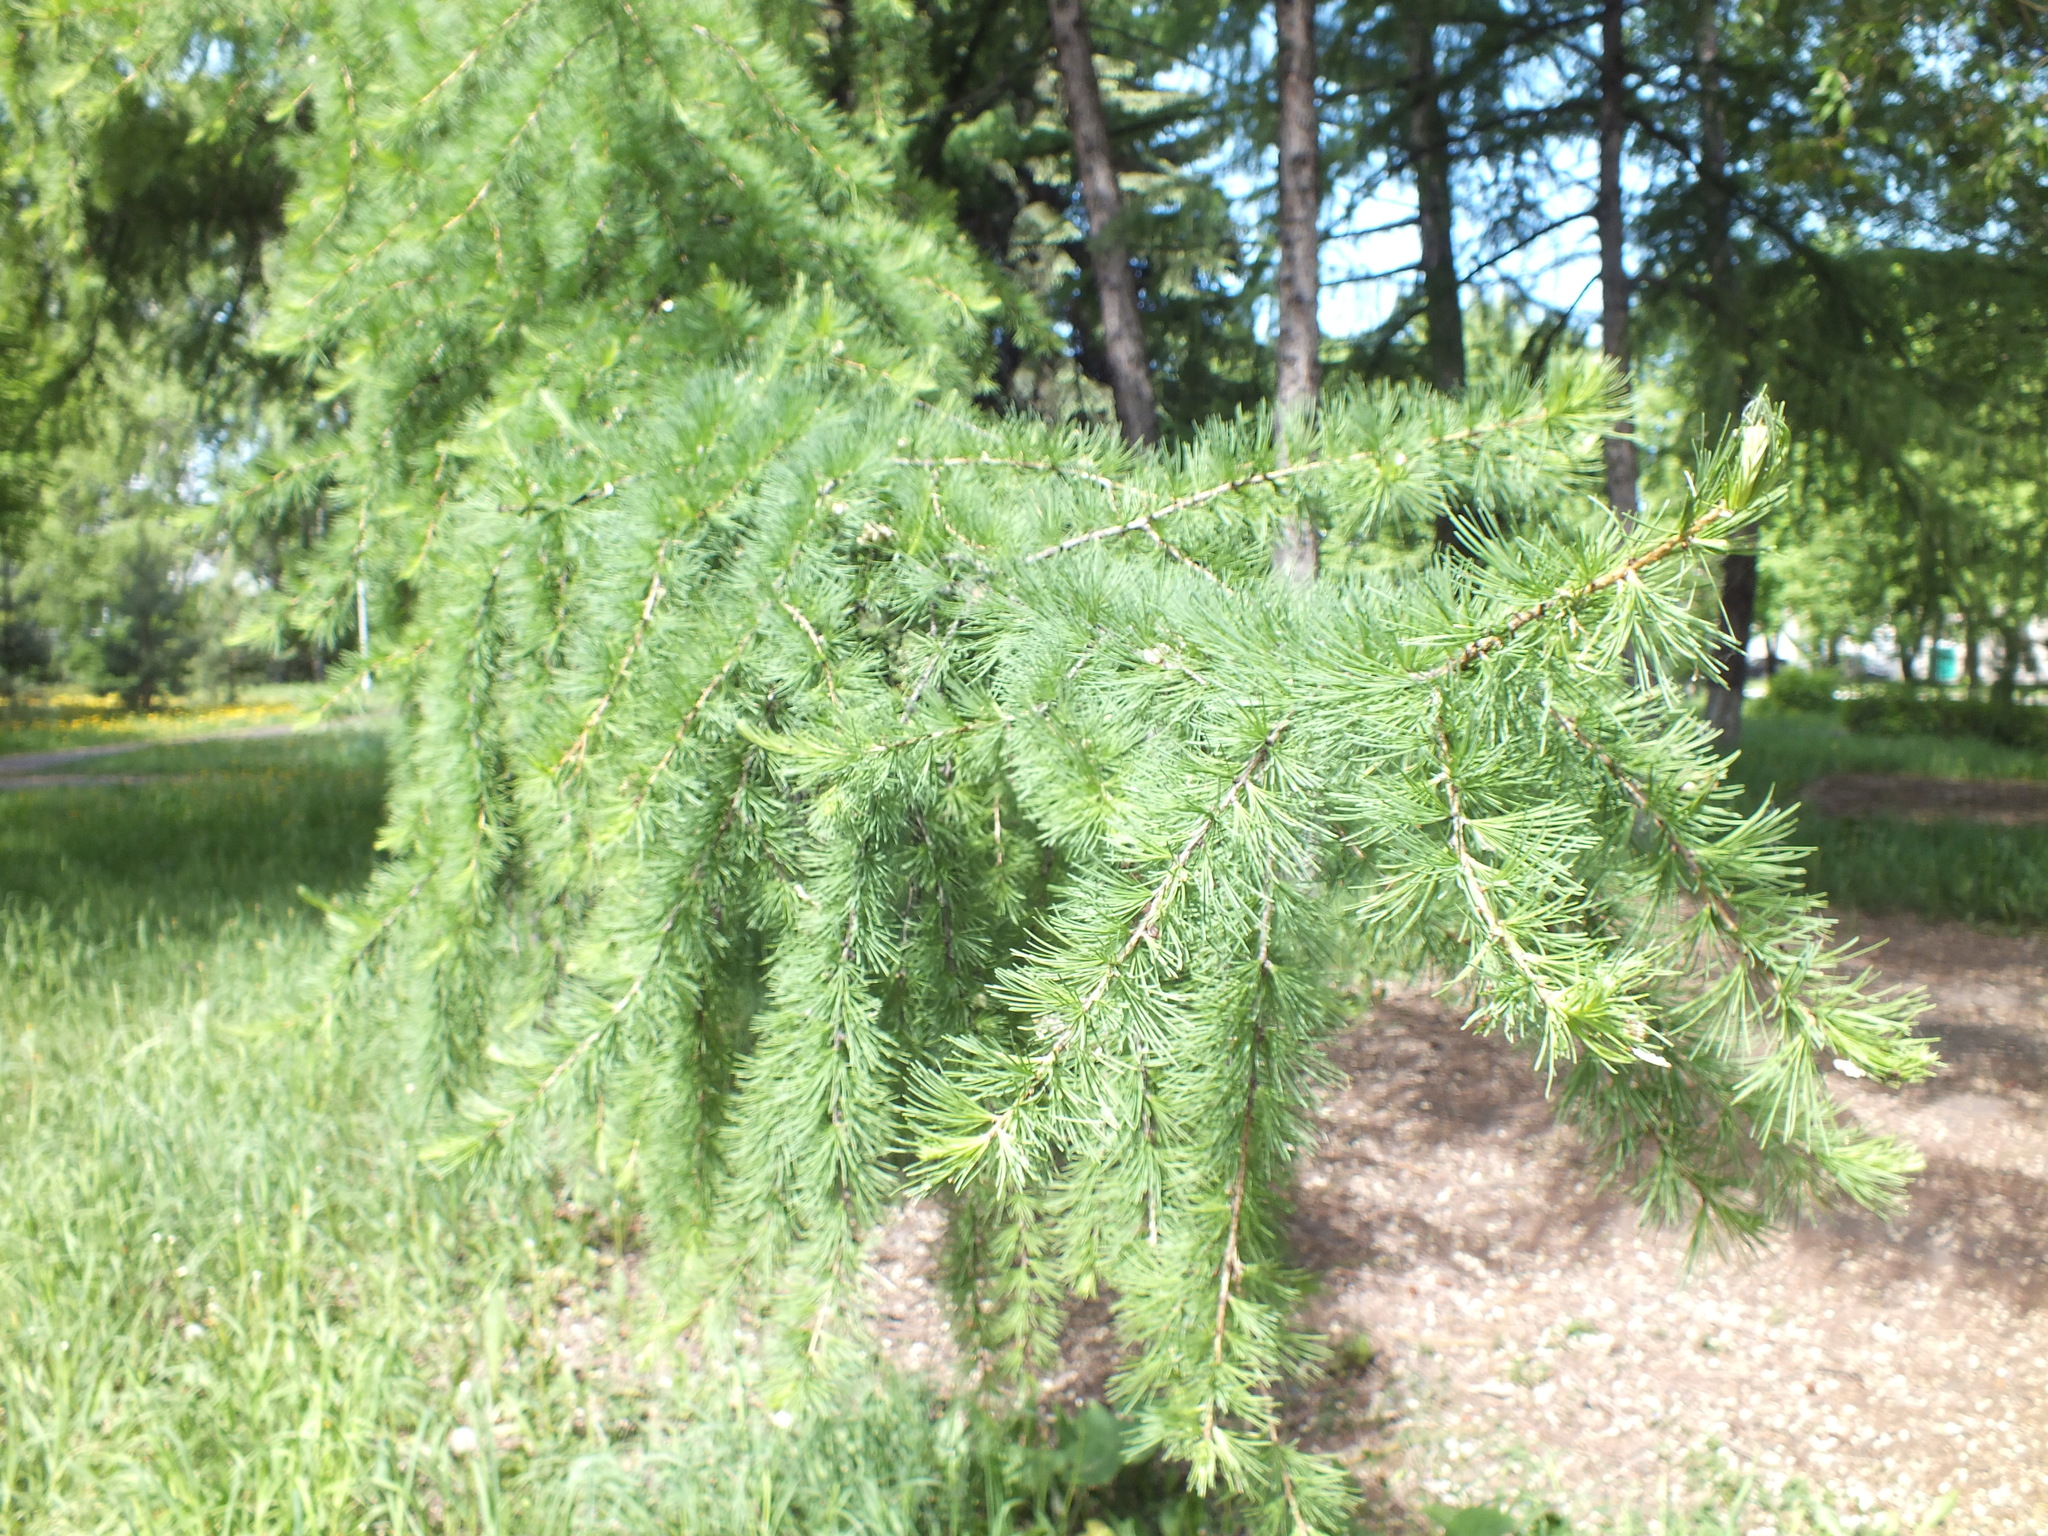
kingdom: Plantae
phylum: Tracheophyta
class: Pinopsida
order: Pinales
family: Pinaceae
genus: Larix
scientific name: Larix sibirica
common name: Siberian larch
